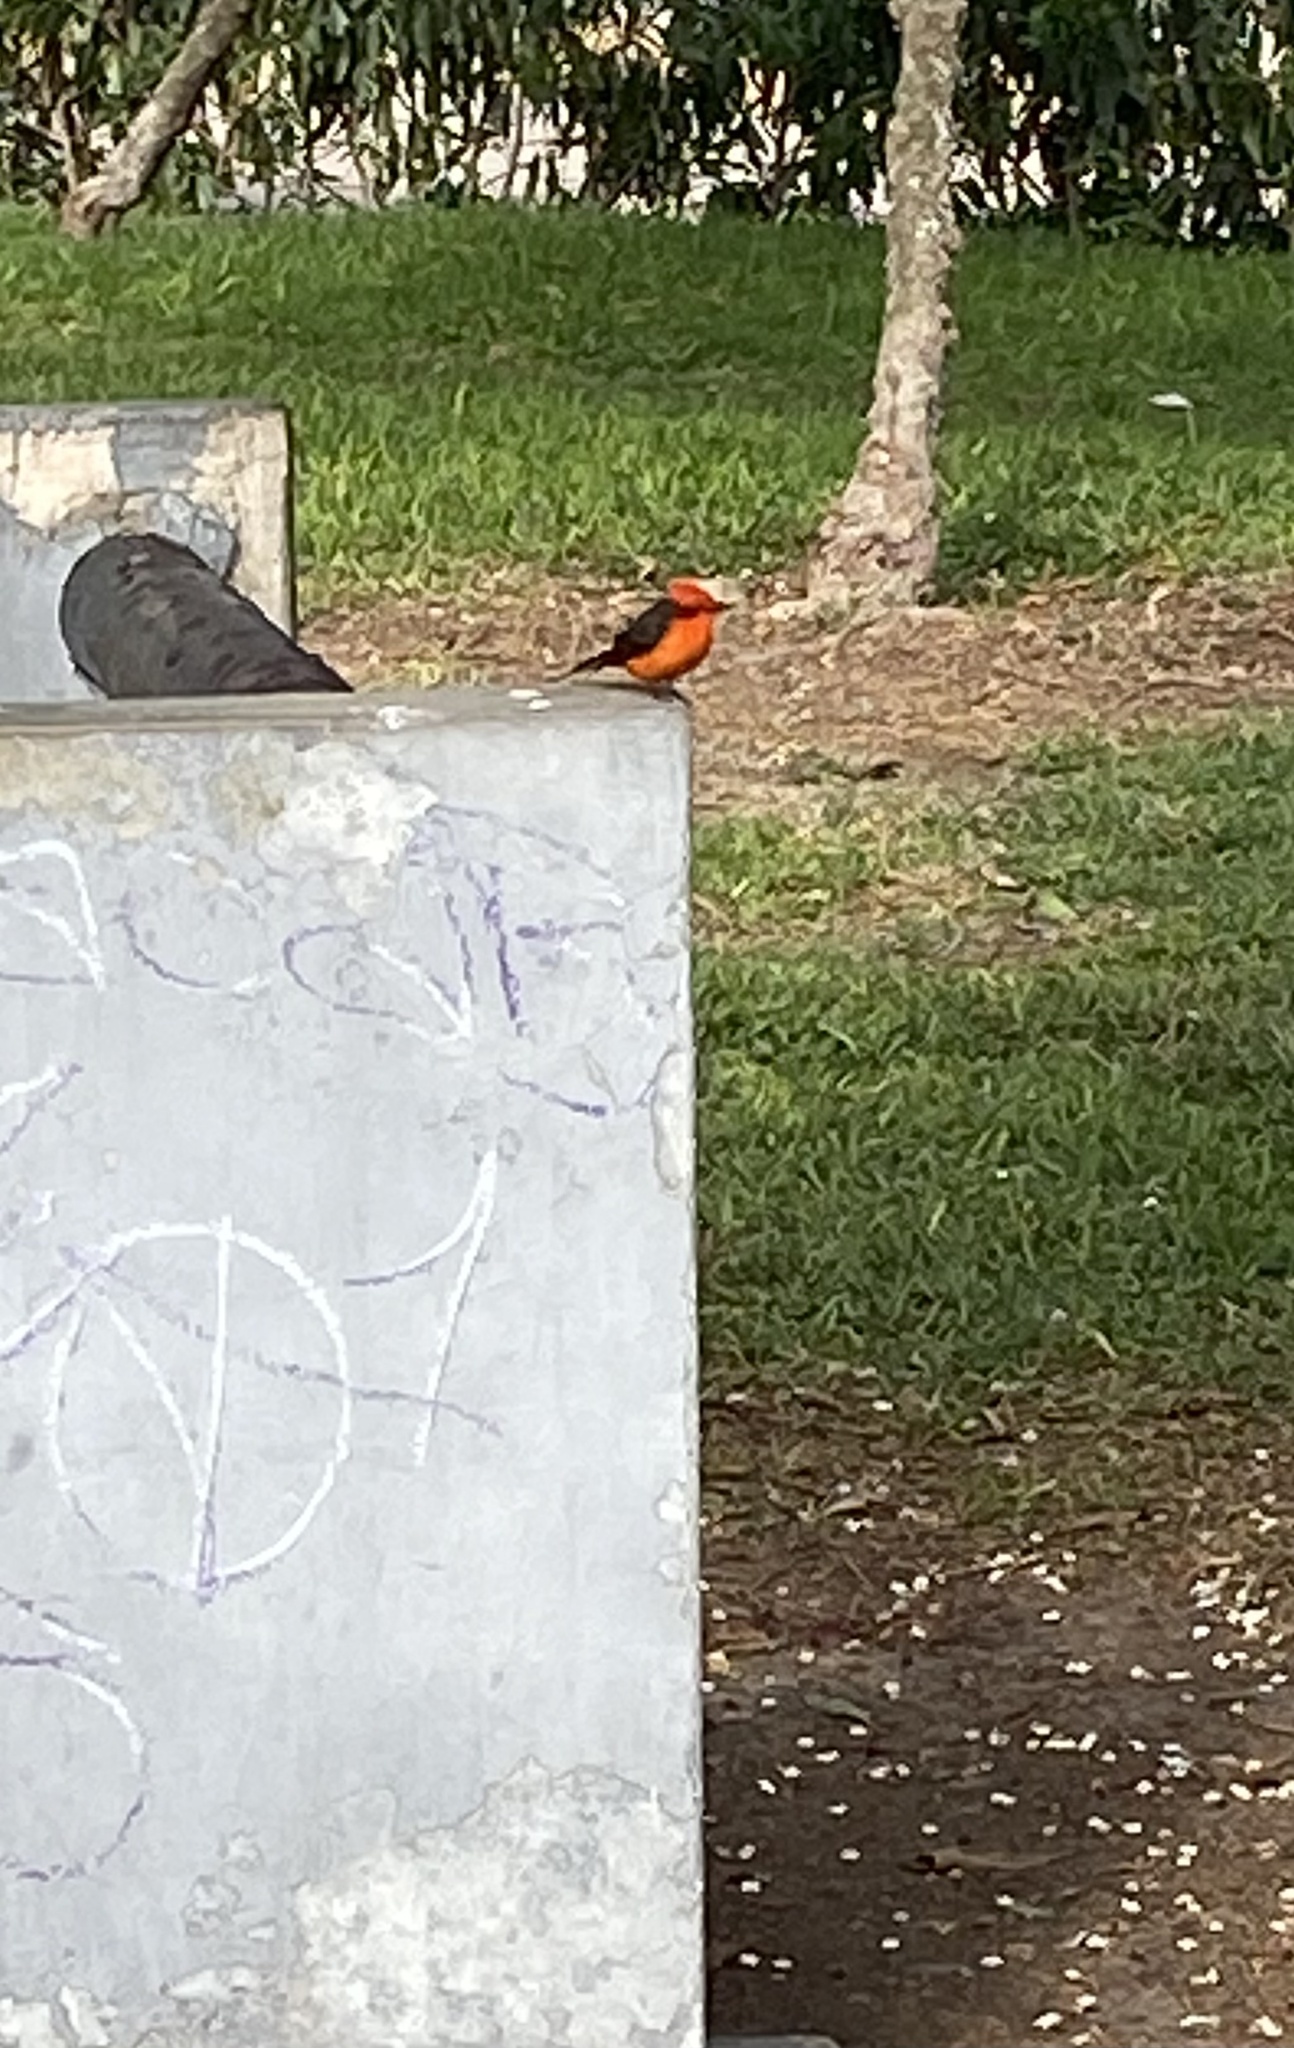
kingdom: Animalia
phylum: Chordata
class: Aves
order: Passeriformes
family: Tyrannidae
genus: Pyrocephalus
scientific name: Pyrocephalus rubinus
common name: Vermilion flycatcher
